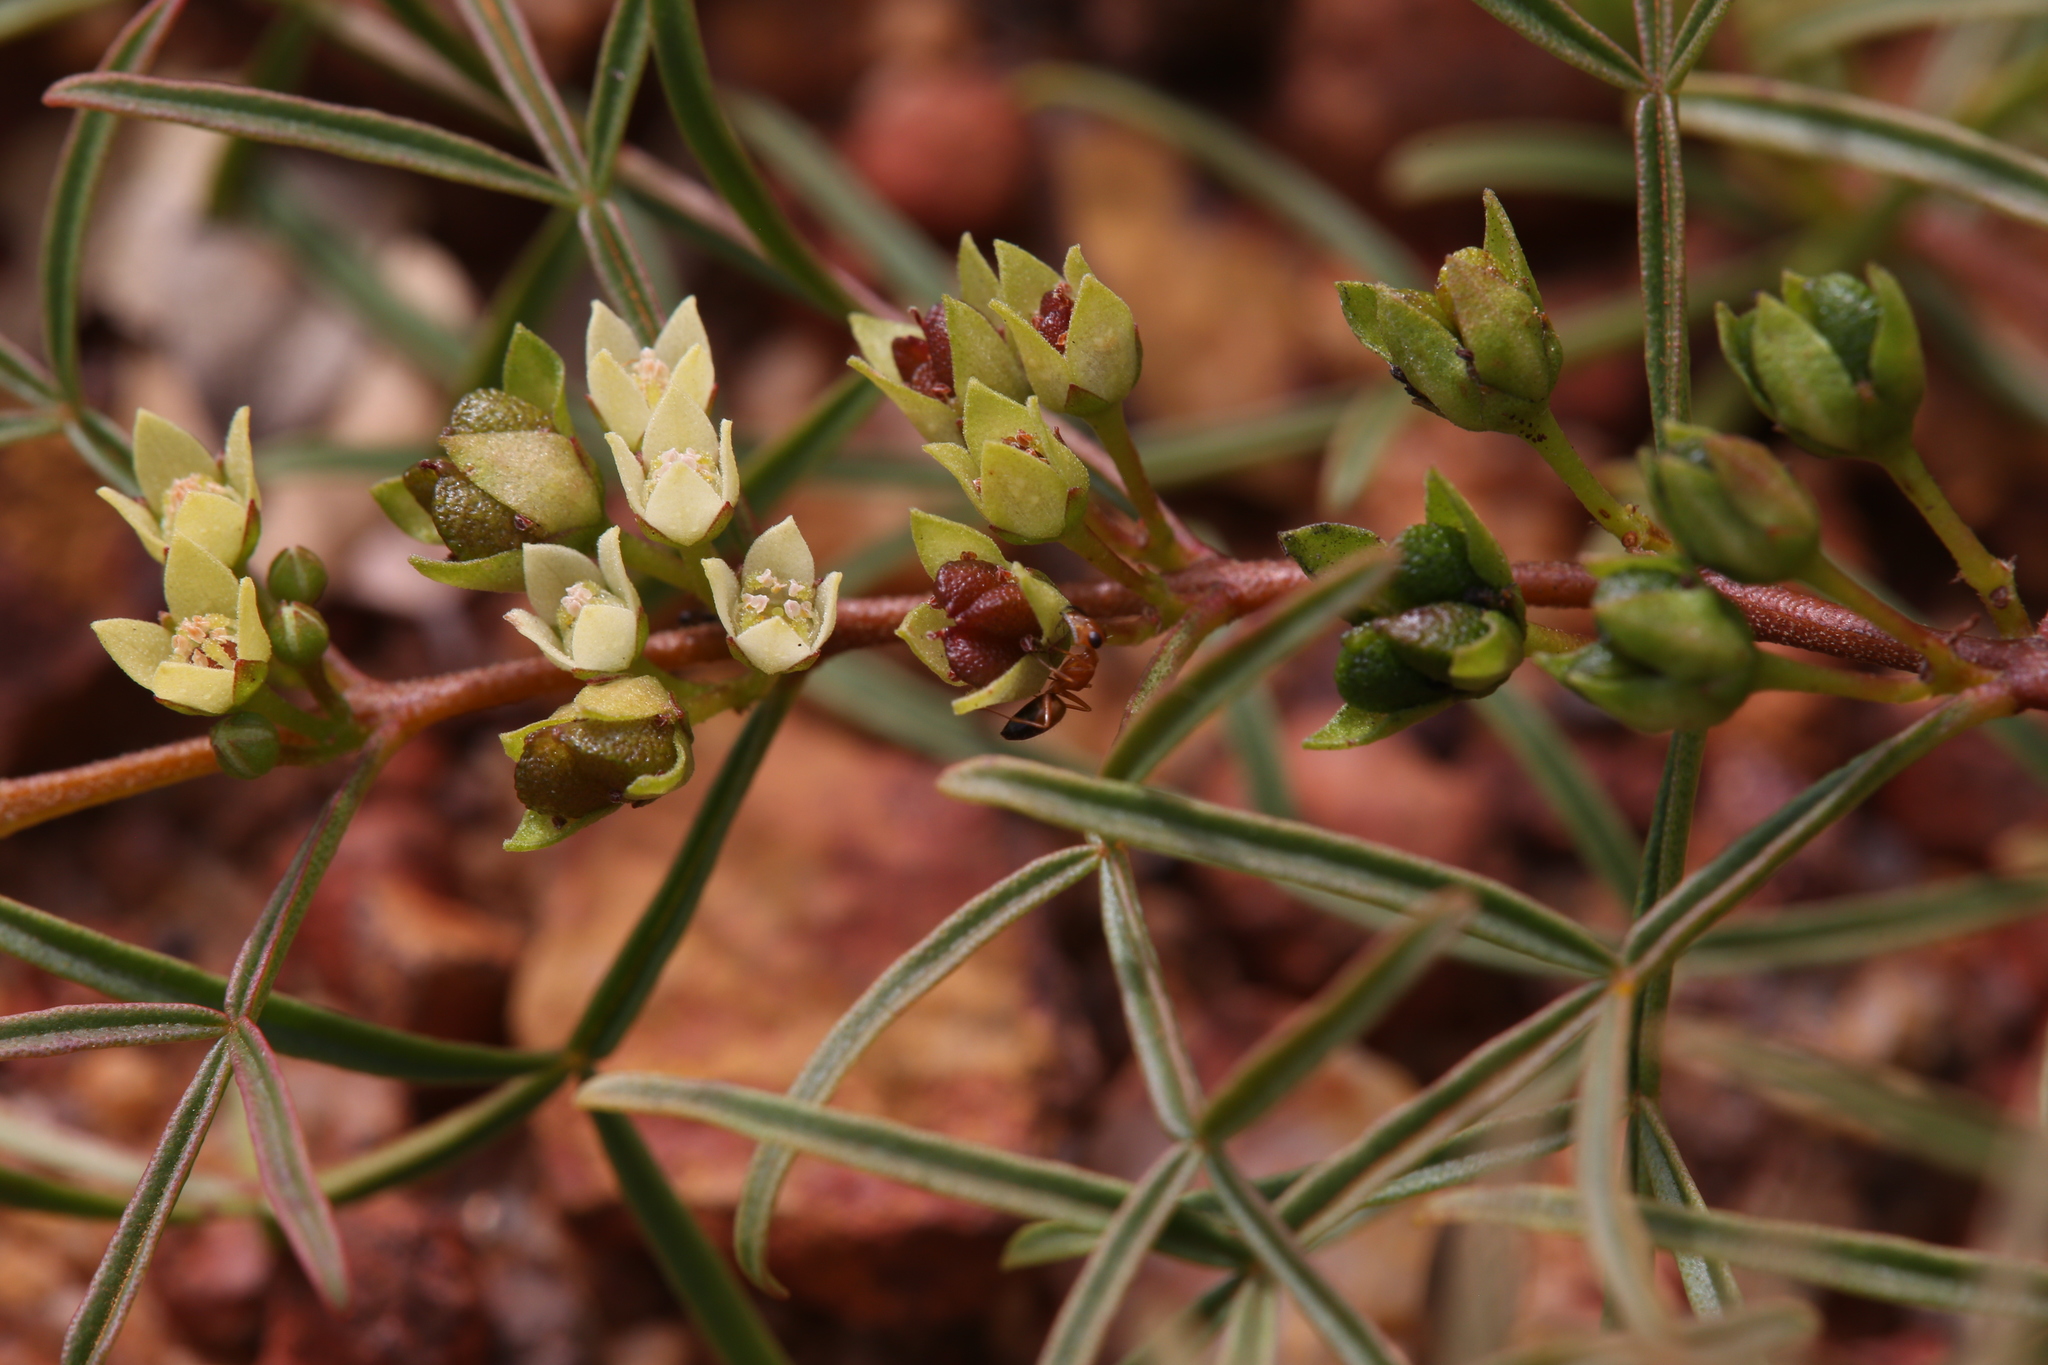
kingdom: Plantae
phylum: Tracheophyta
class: Magnoliopsida
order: Sapindales
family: Rutaceae
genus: Boronia
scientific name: Boronia bowmanii
